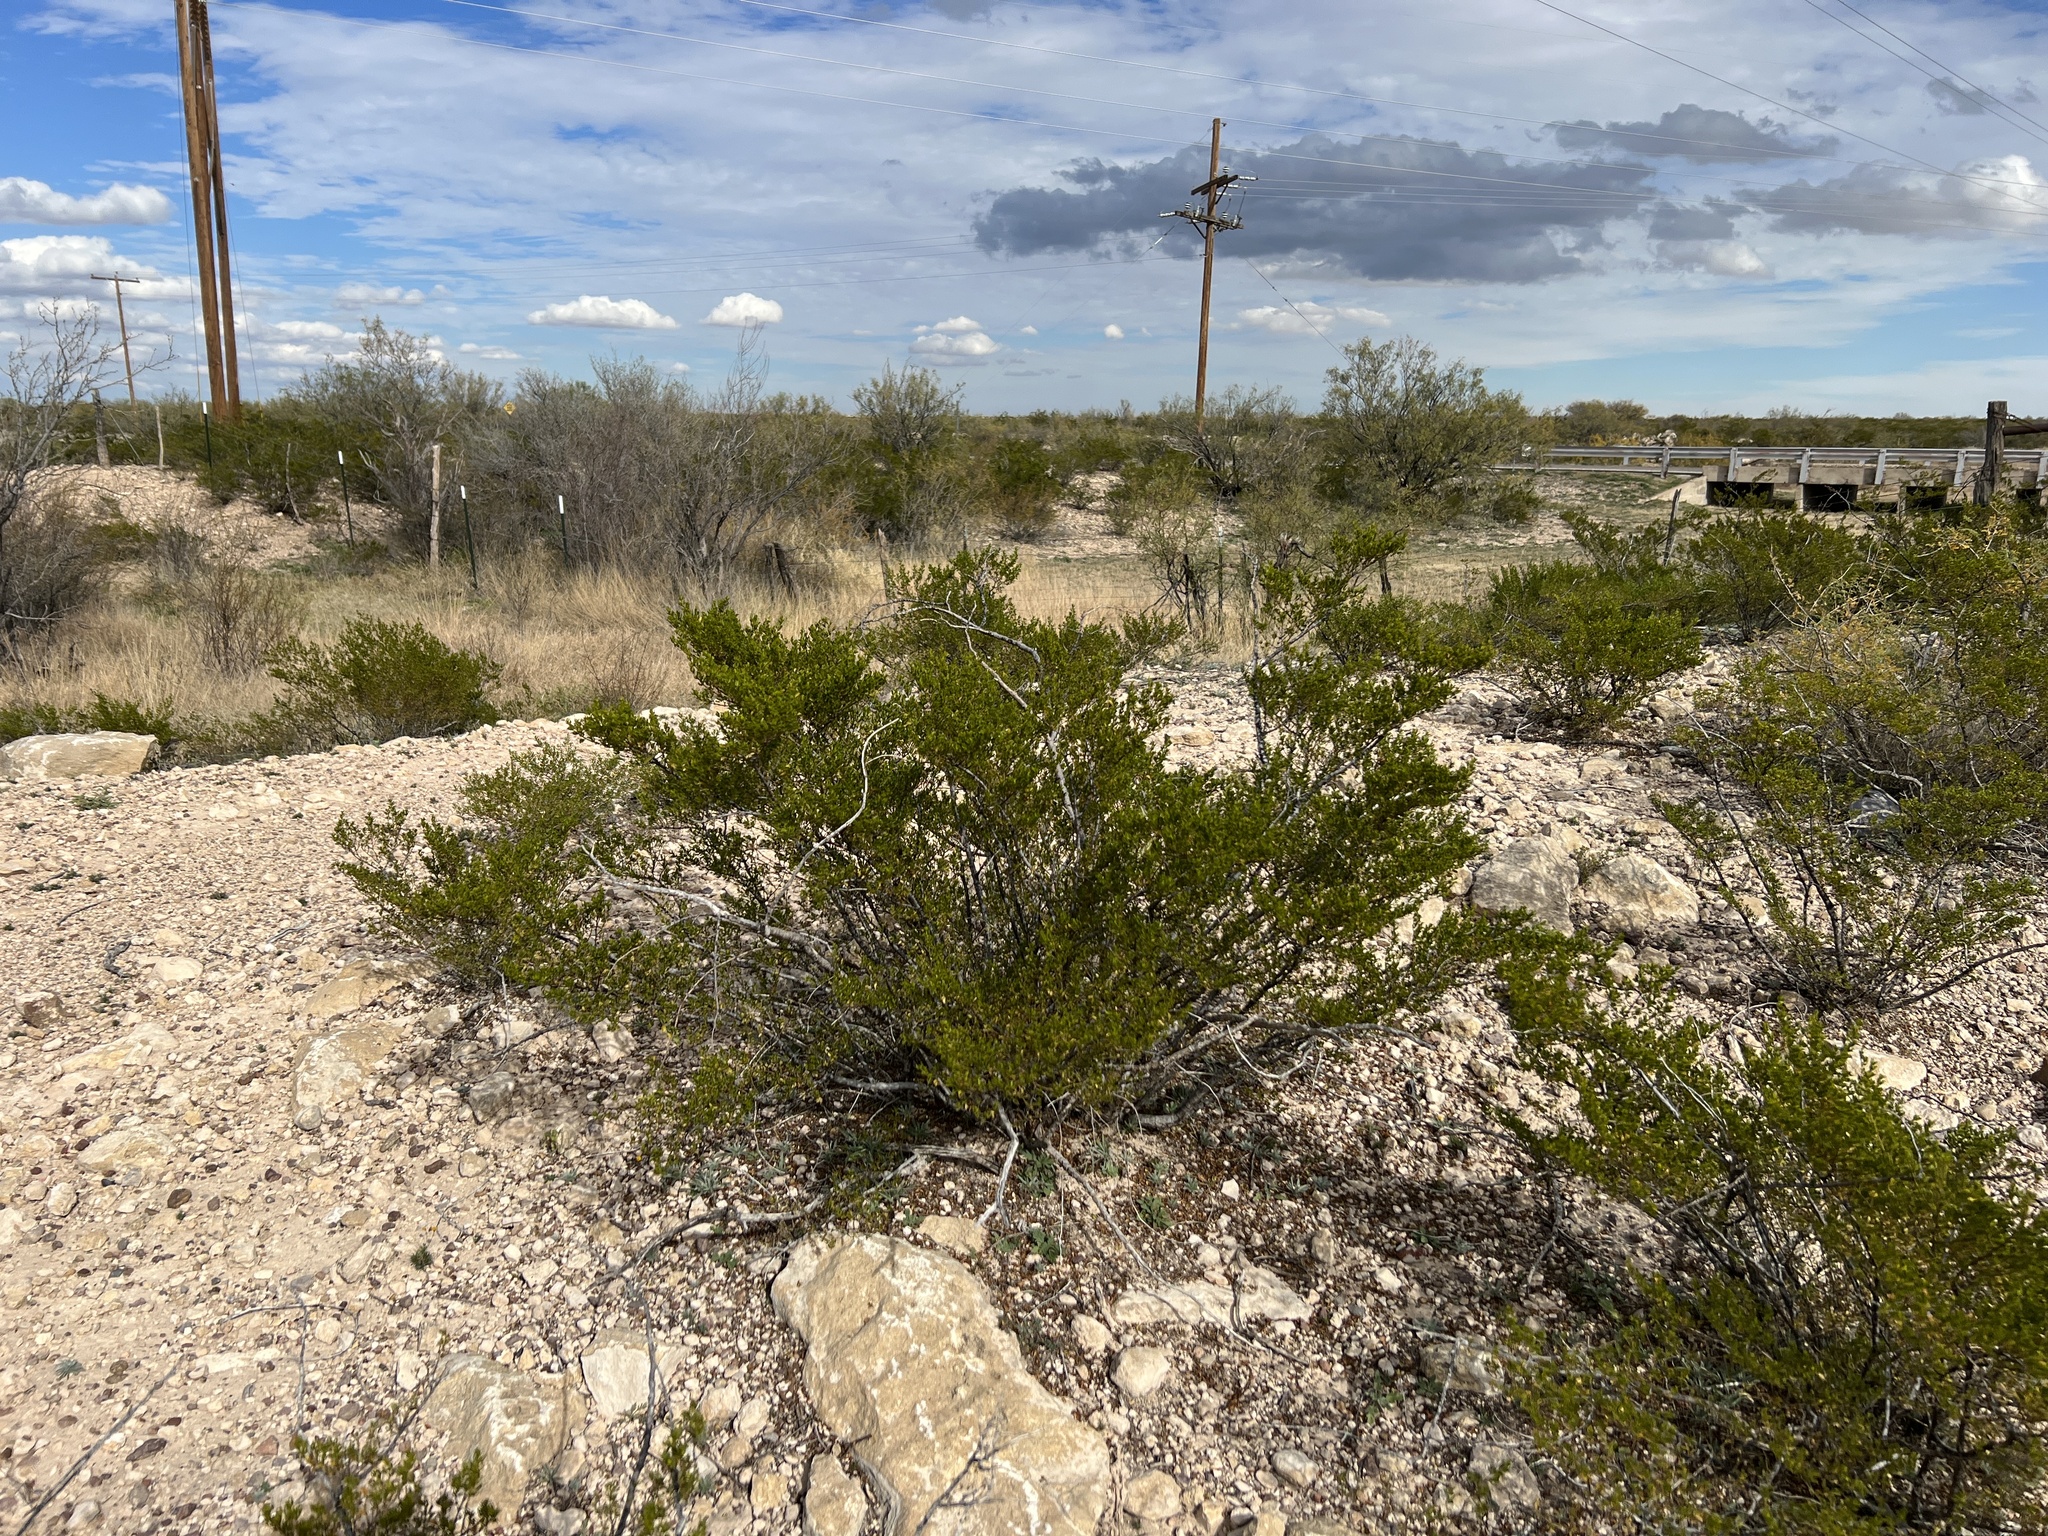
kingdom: Plantae
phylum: Tracheophyta
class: Magnoliopsida
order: Zygophyllales
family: Zygophyllaceae
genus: Larrea
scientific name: Larrea tridentata
